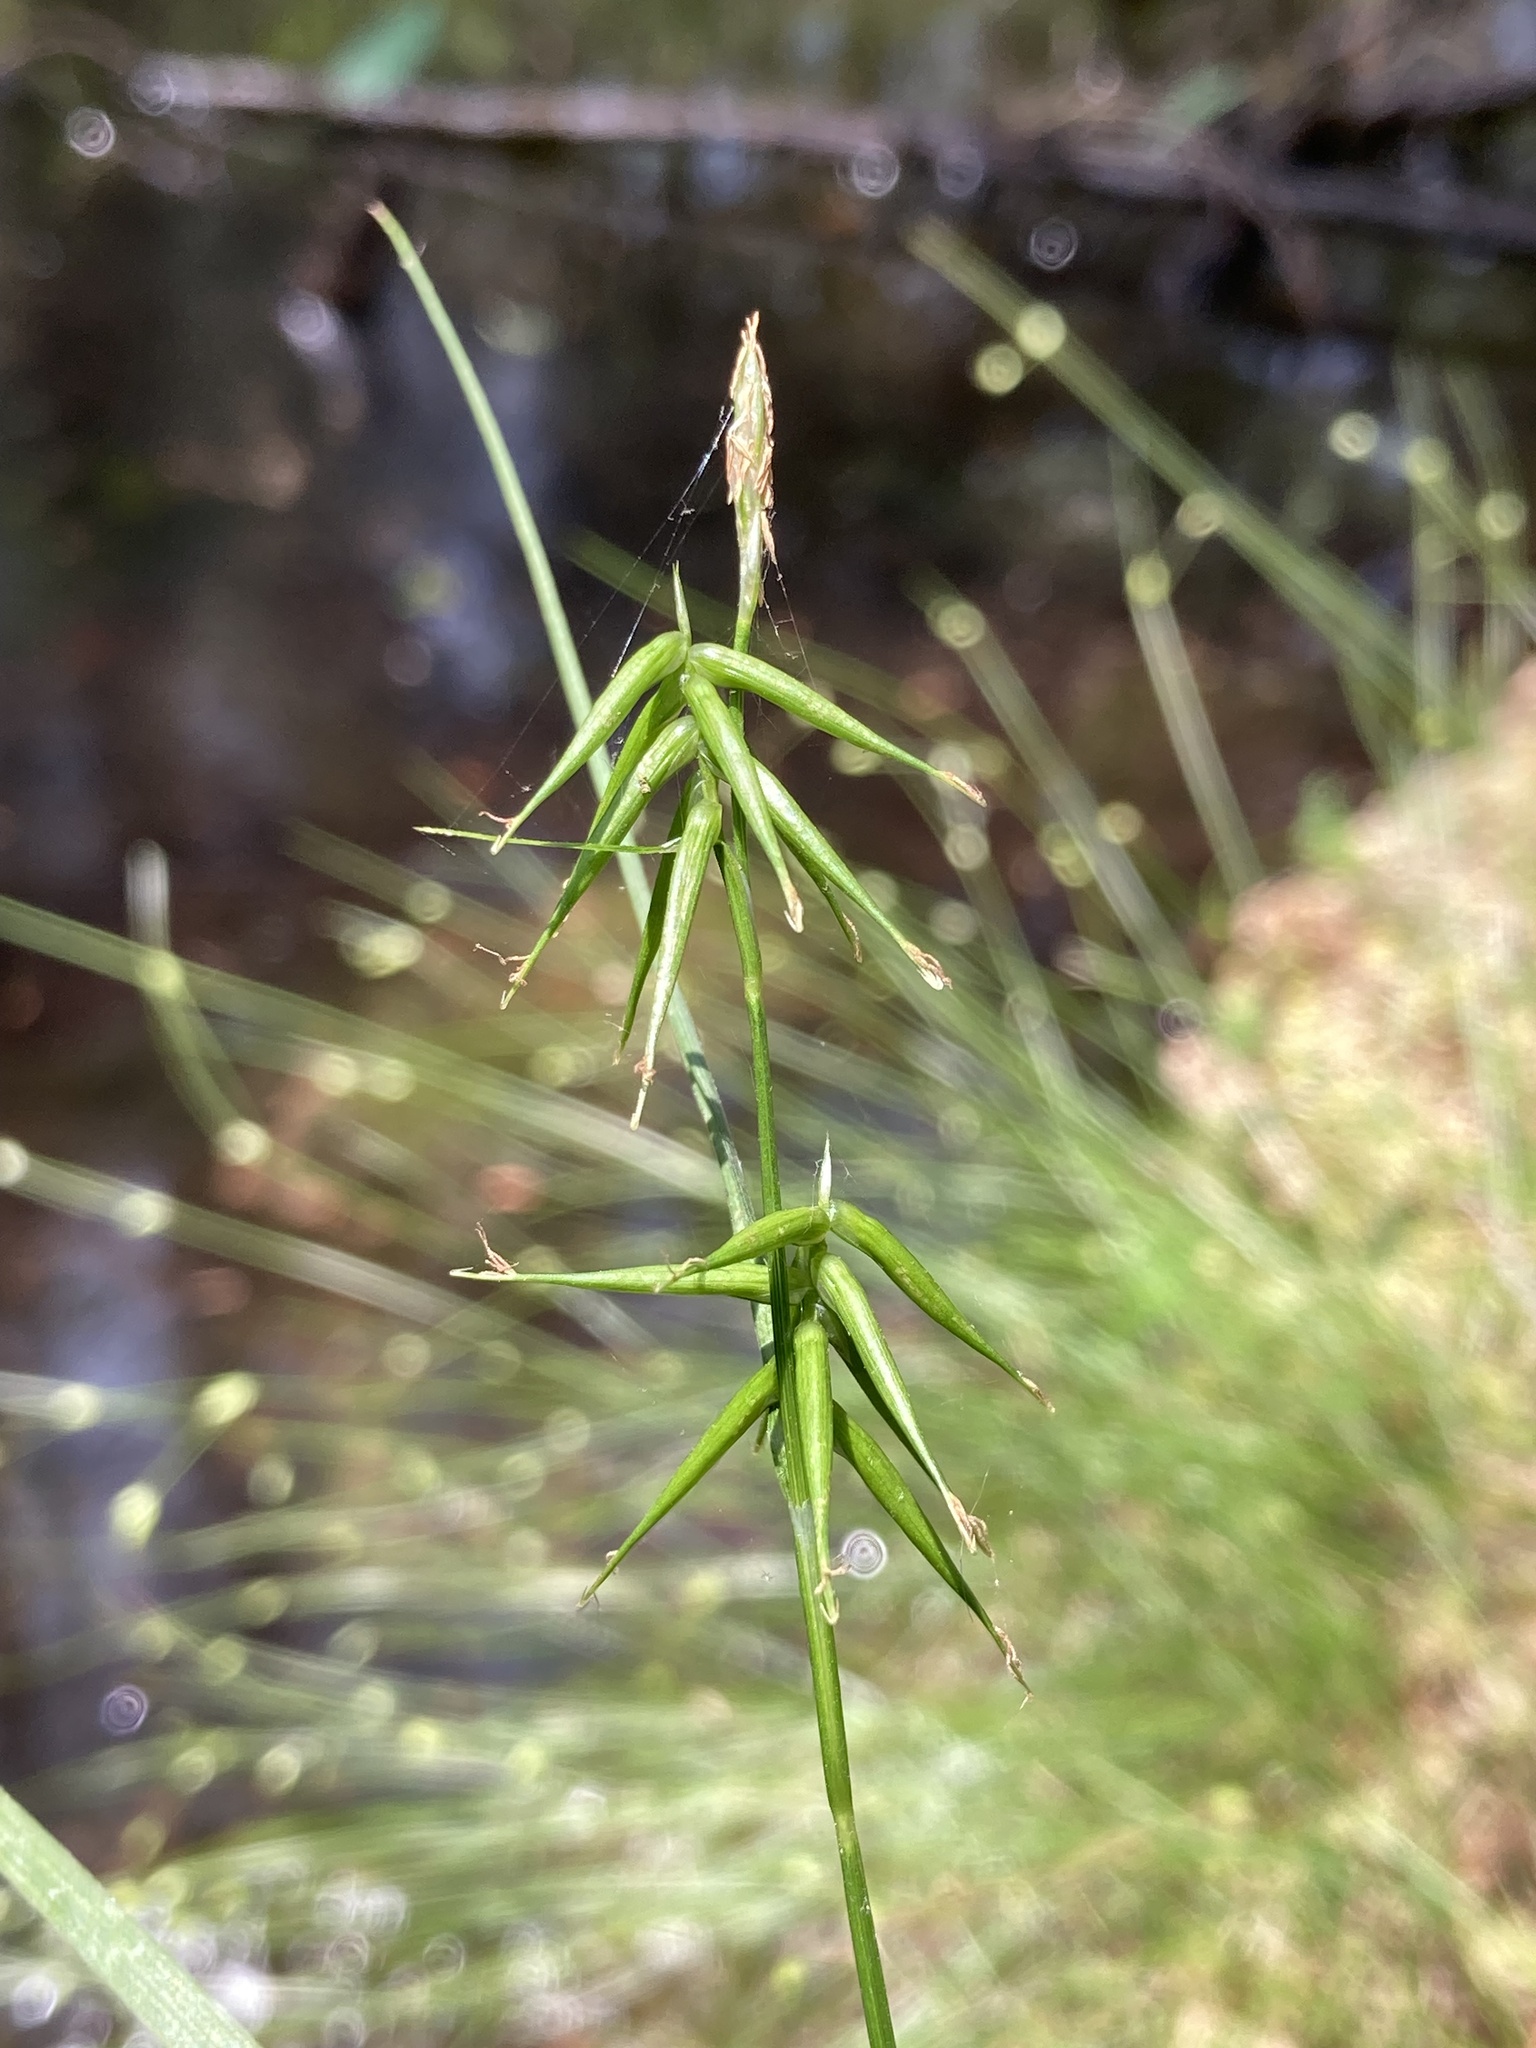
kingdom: Plantae
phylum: Tracheophyta
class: Liliopsida
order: Poales
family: Cyperaceae
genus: Carex
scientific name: Carex collinsii
